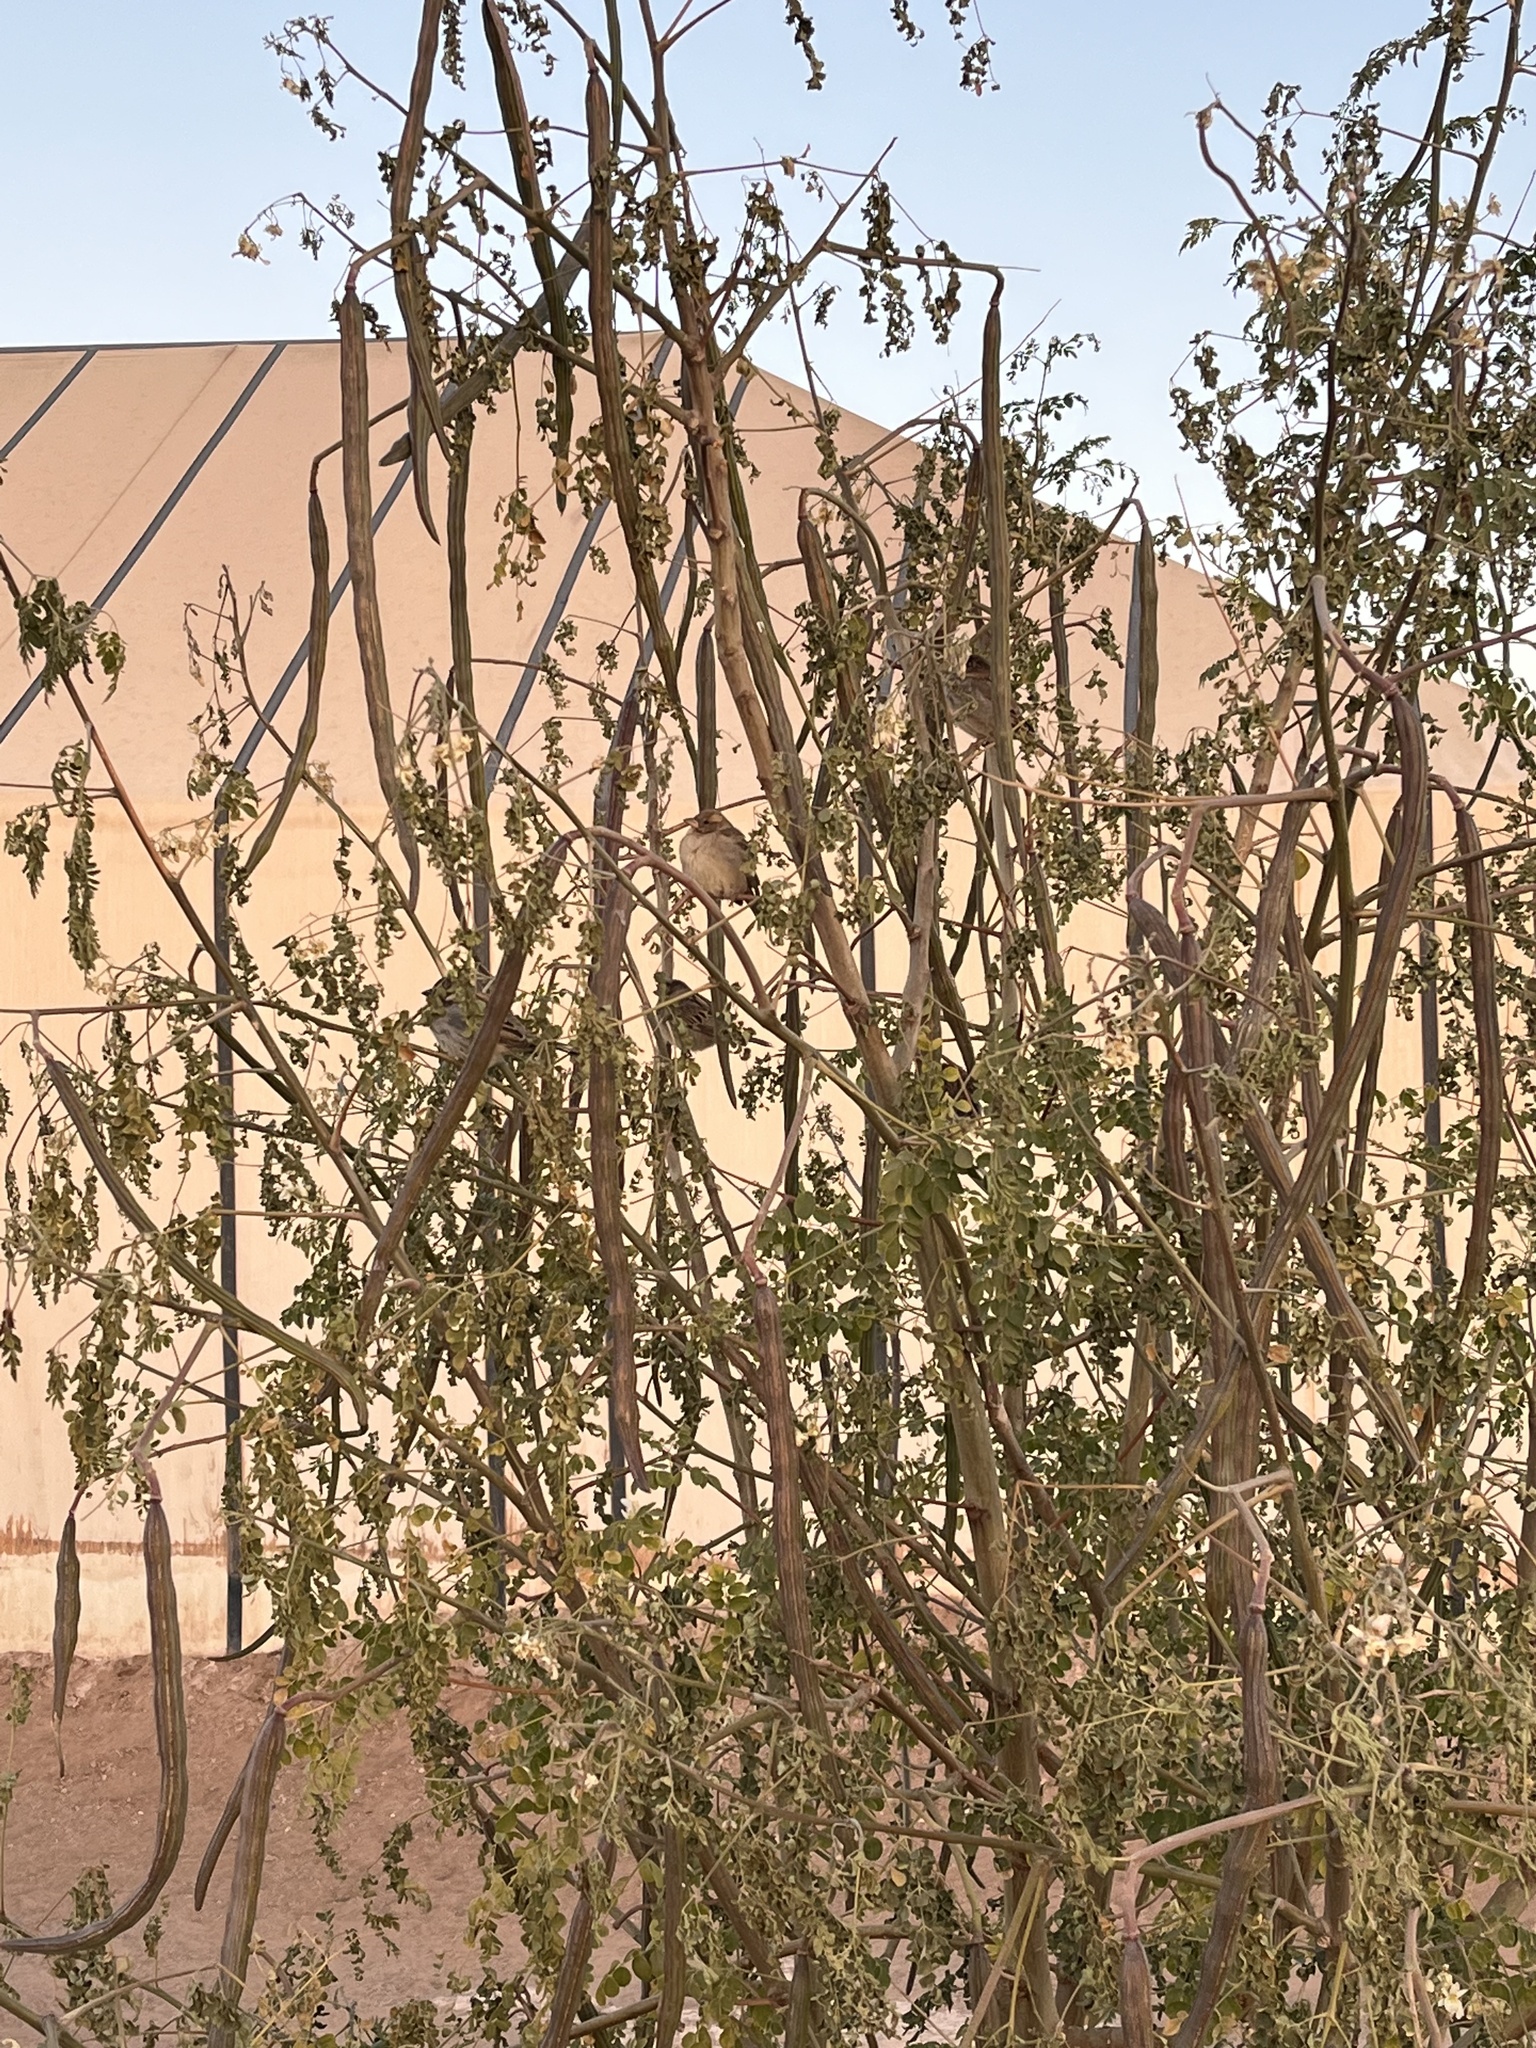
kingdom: Animalia
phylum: Chordata
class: Aves
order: Passeriformes
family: Passeridae
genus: Passer
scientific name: Passer domesticus
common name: House sparrow
